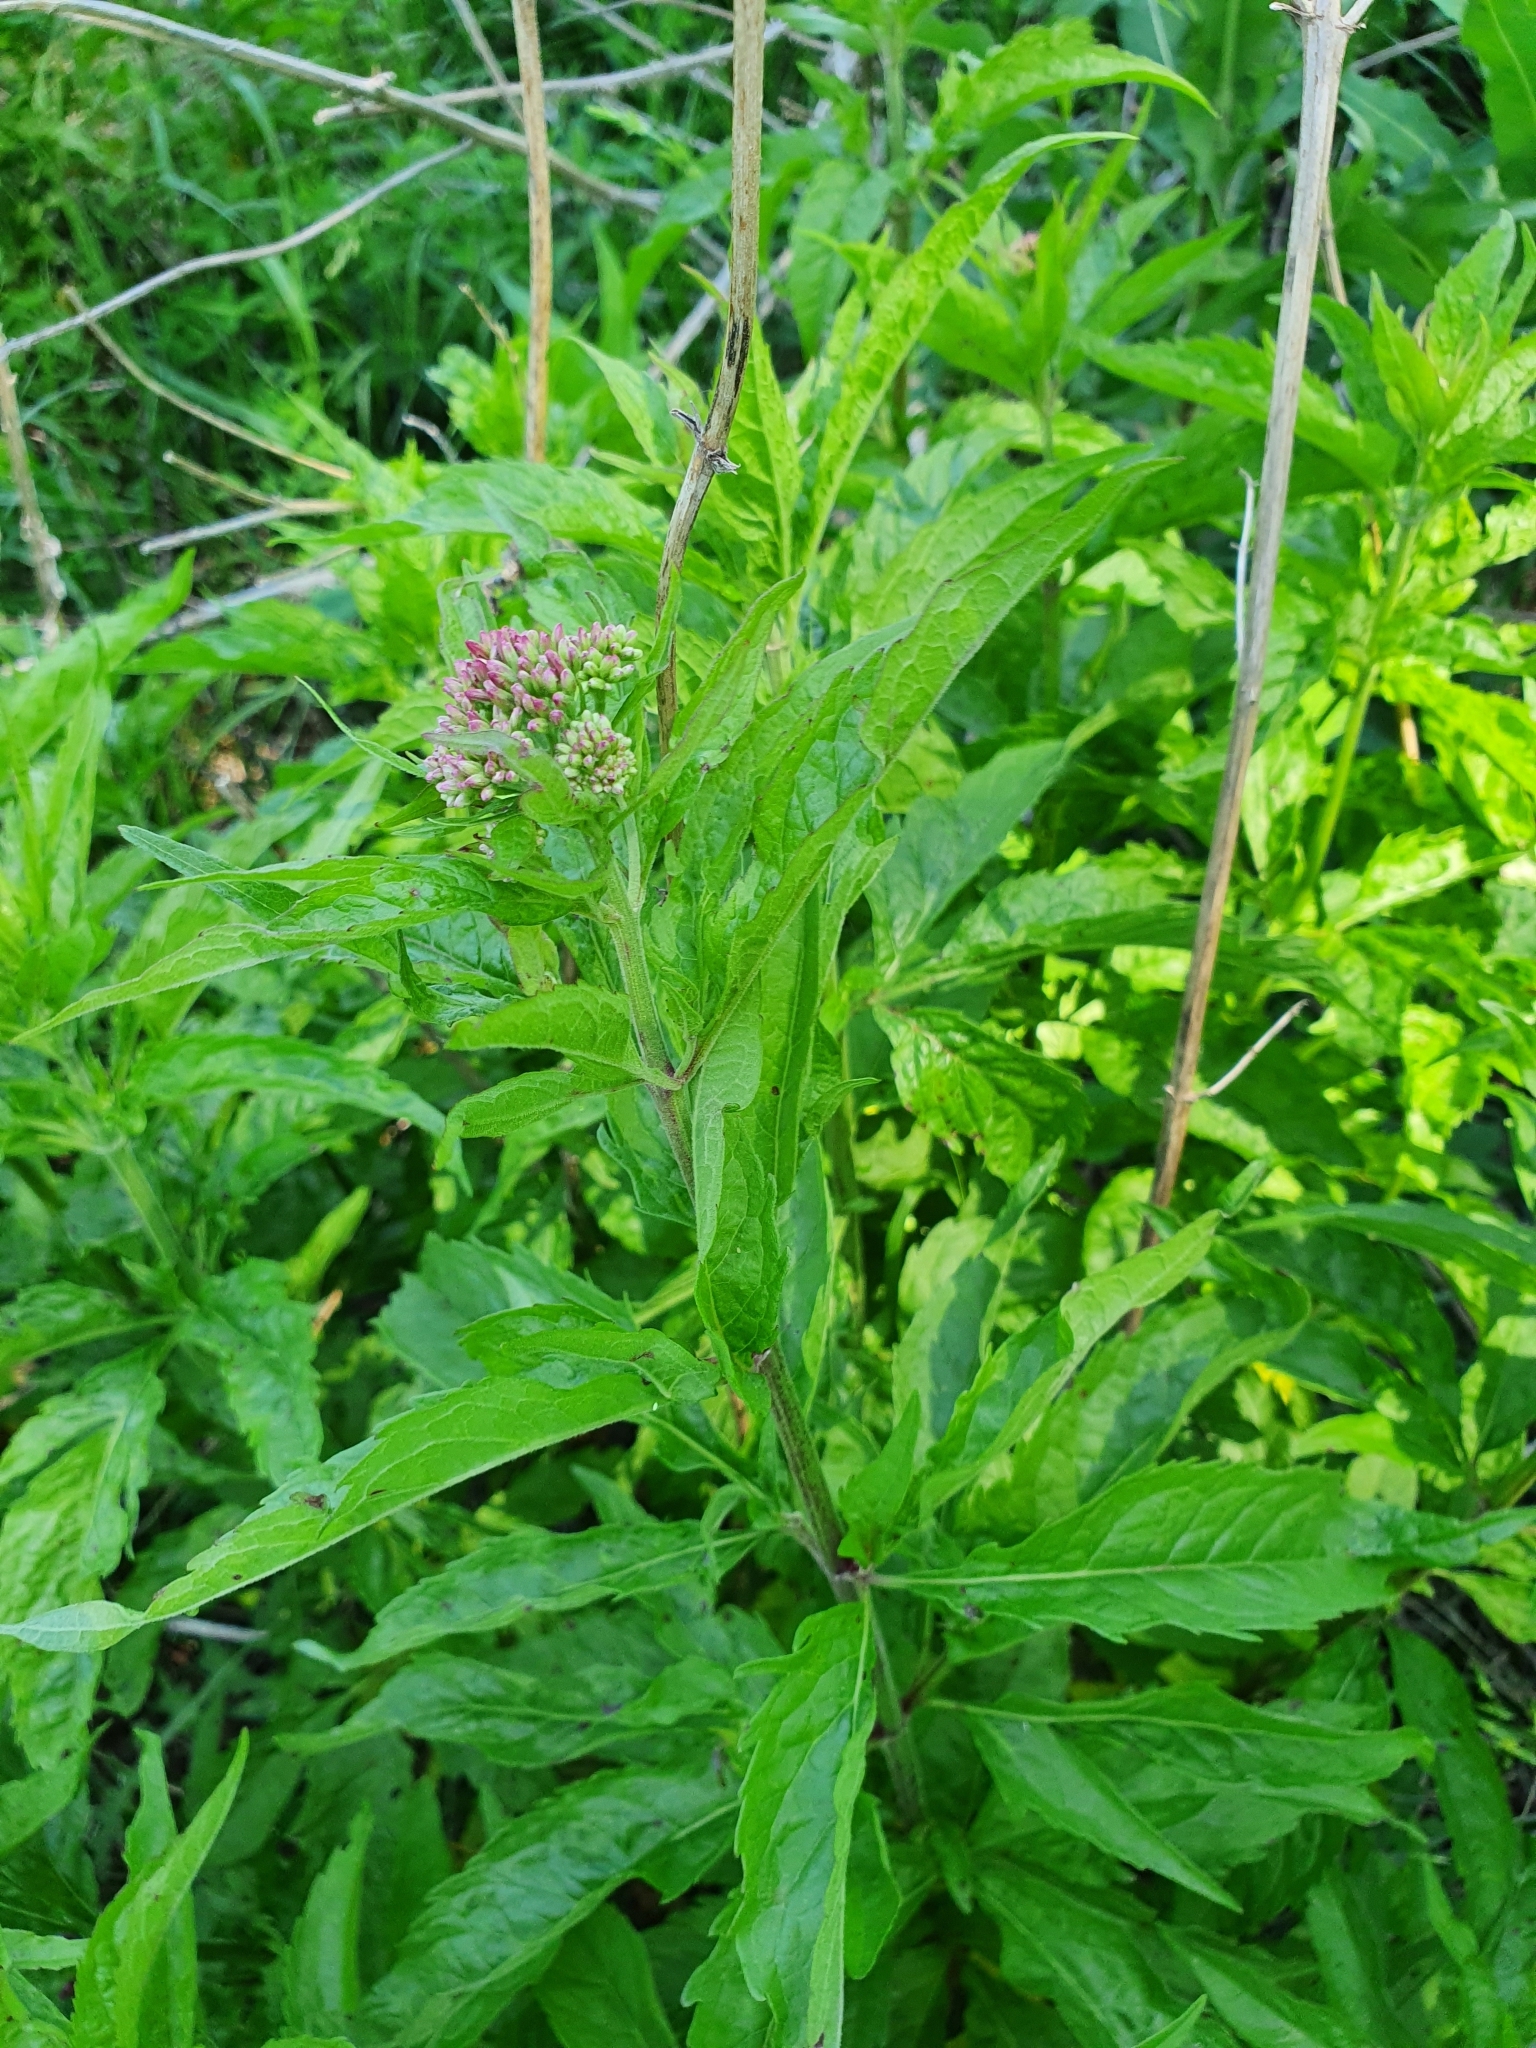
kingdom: Plantae
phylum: Tracheophyta
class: Magnoliopsida
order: Asterales
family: Asteraceae
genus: Eupatorium
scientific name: Eupatorium cannabinum
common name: Hemp-agrimony
